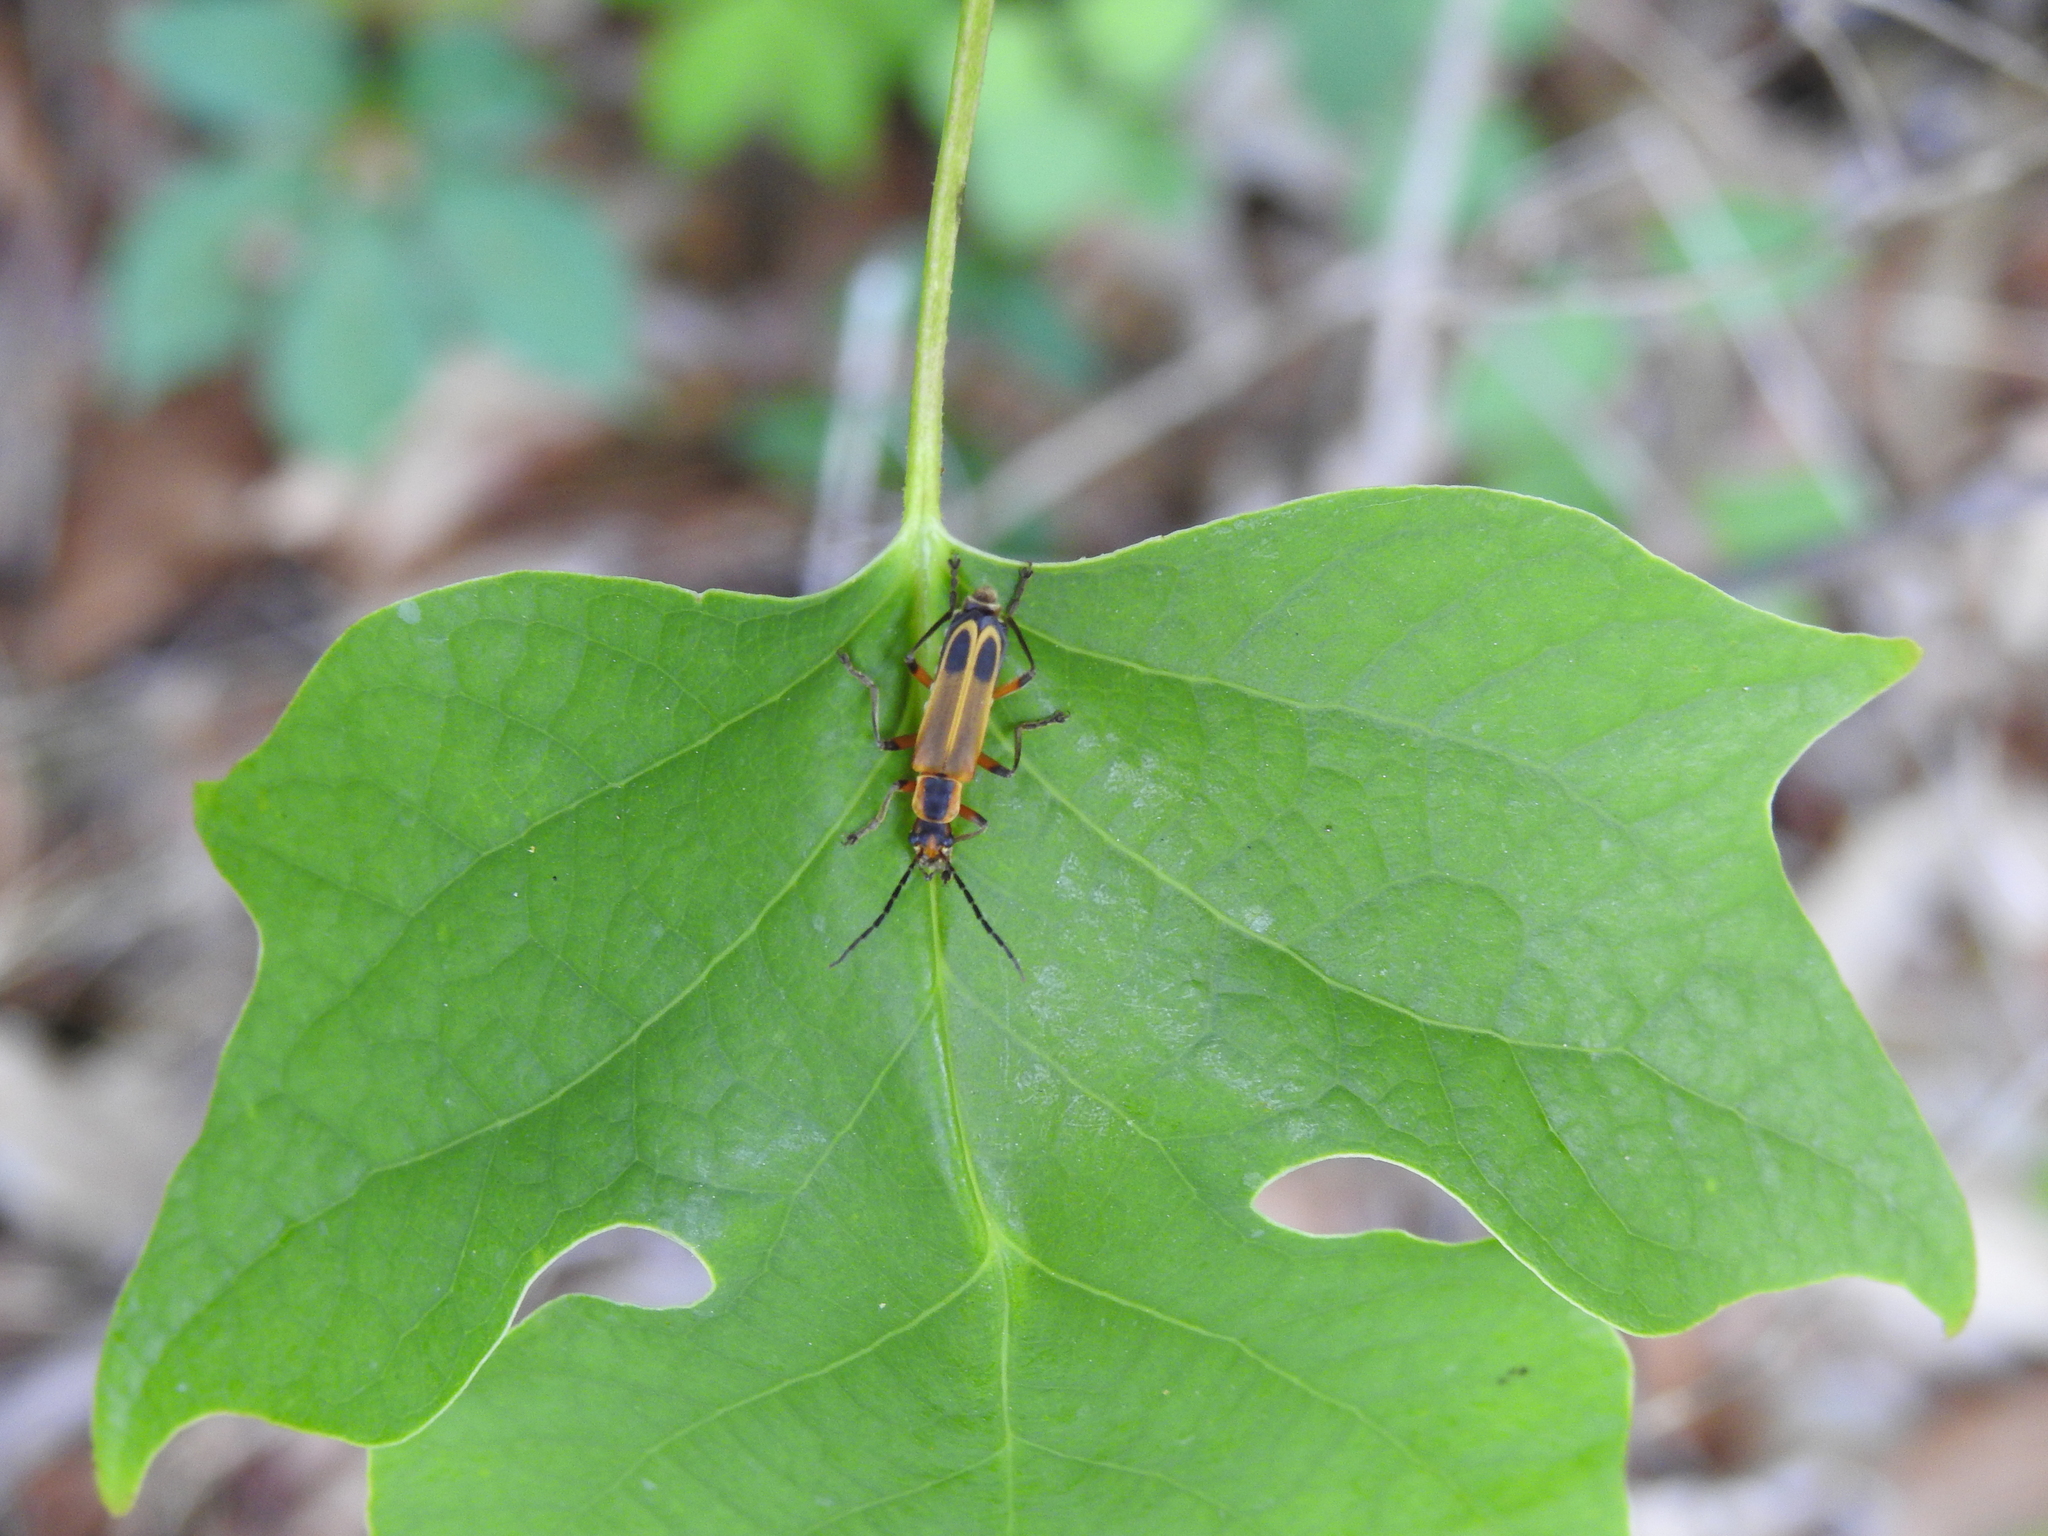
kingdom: Animalia
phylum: Arthropoda
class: Insecta
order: Coleoptera
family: Cantharidae
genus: Chauliognathus
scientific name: Chauliognathus marginatus
